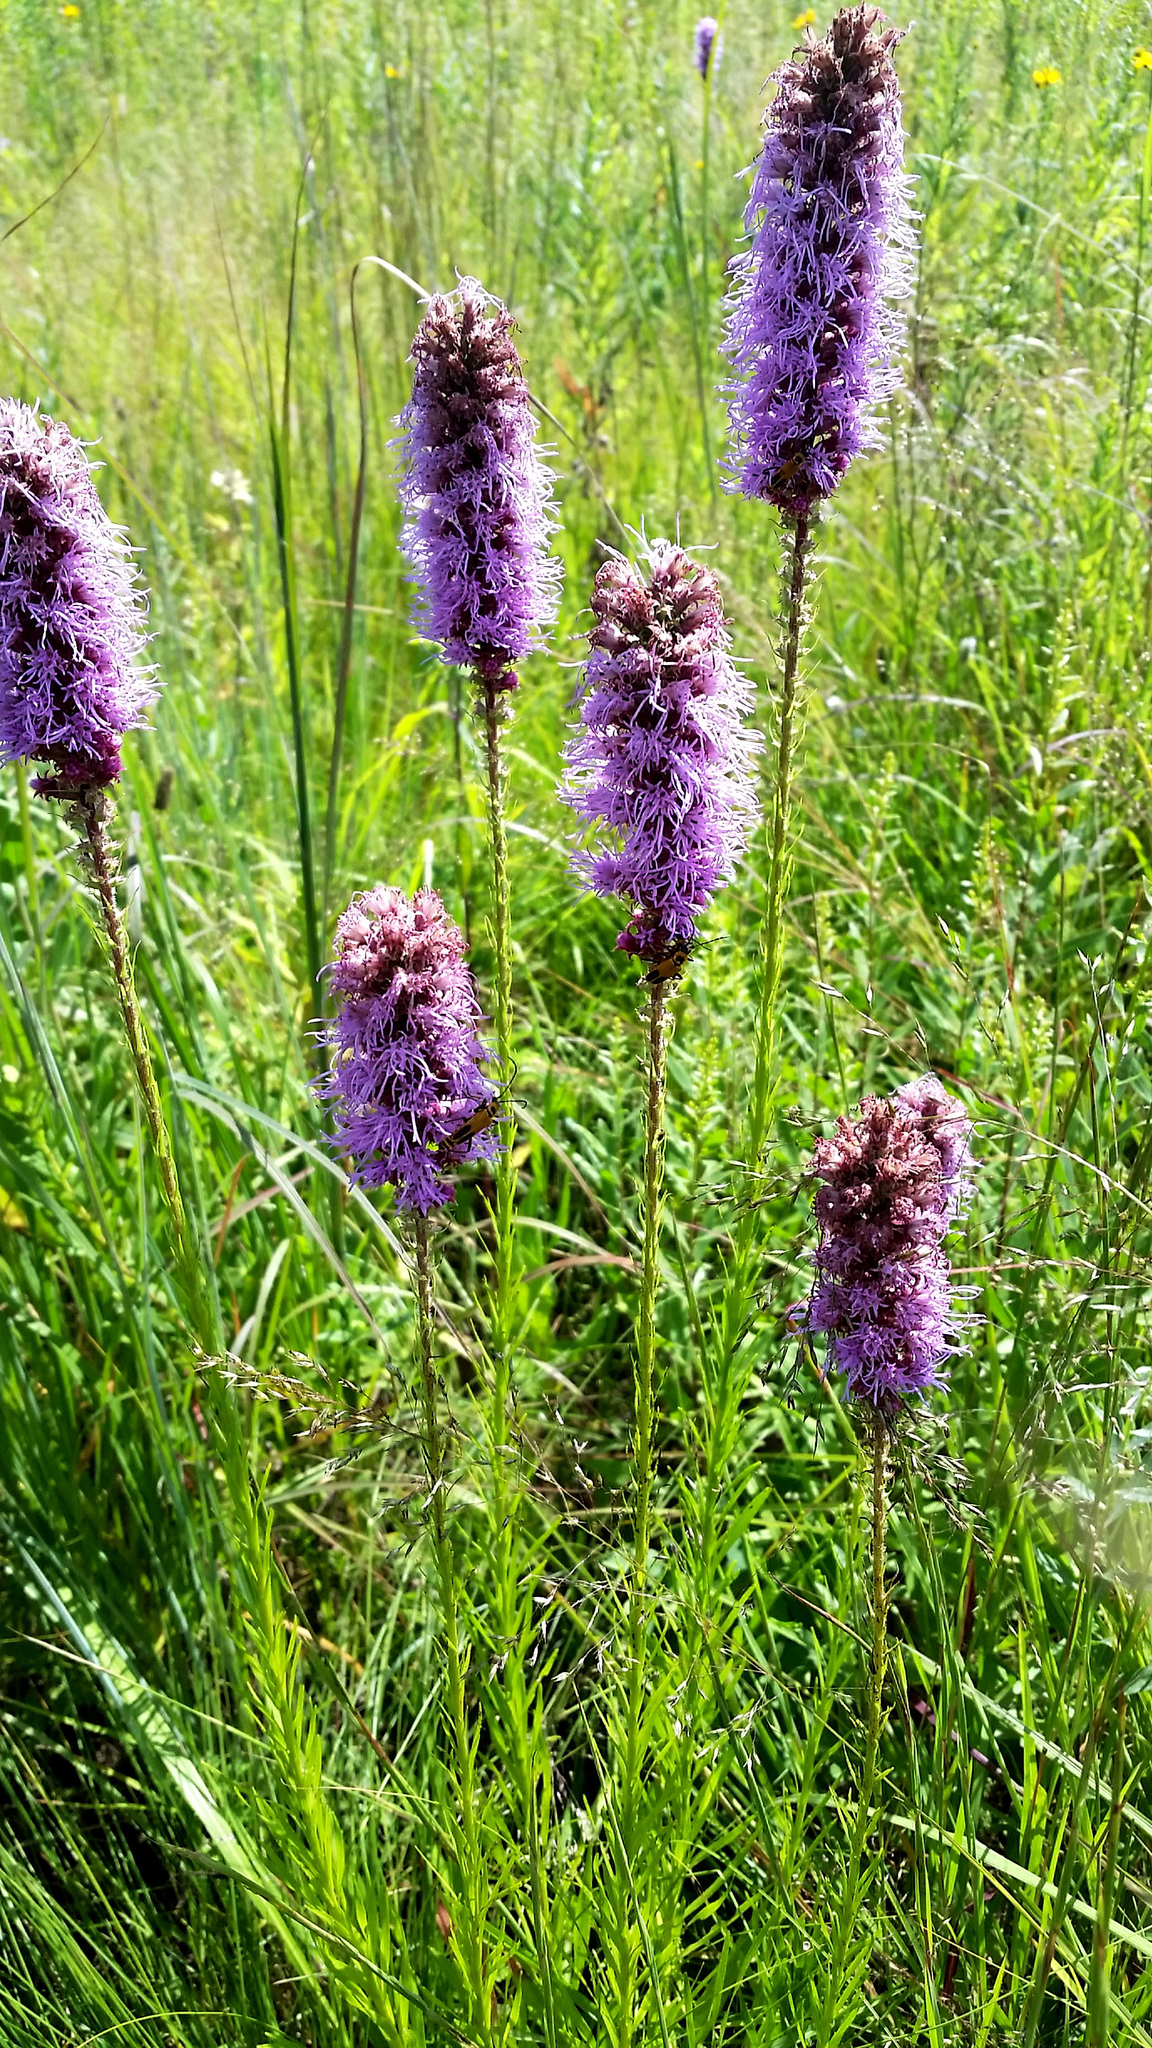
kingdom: Plantae
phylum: Tracheophyta
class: Magnoliopsida
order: Asterales
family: Asteraceae
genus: Liatris
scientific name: Liatris pycnostachya
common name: Cattail gayfeather
